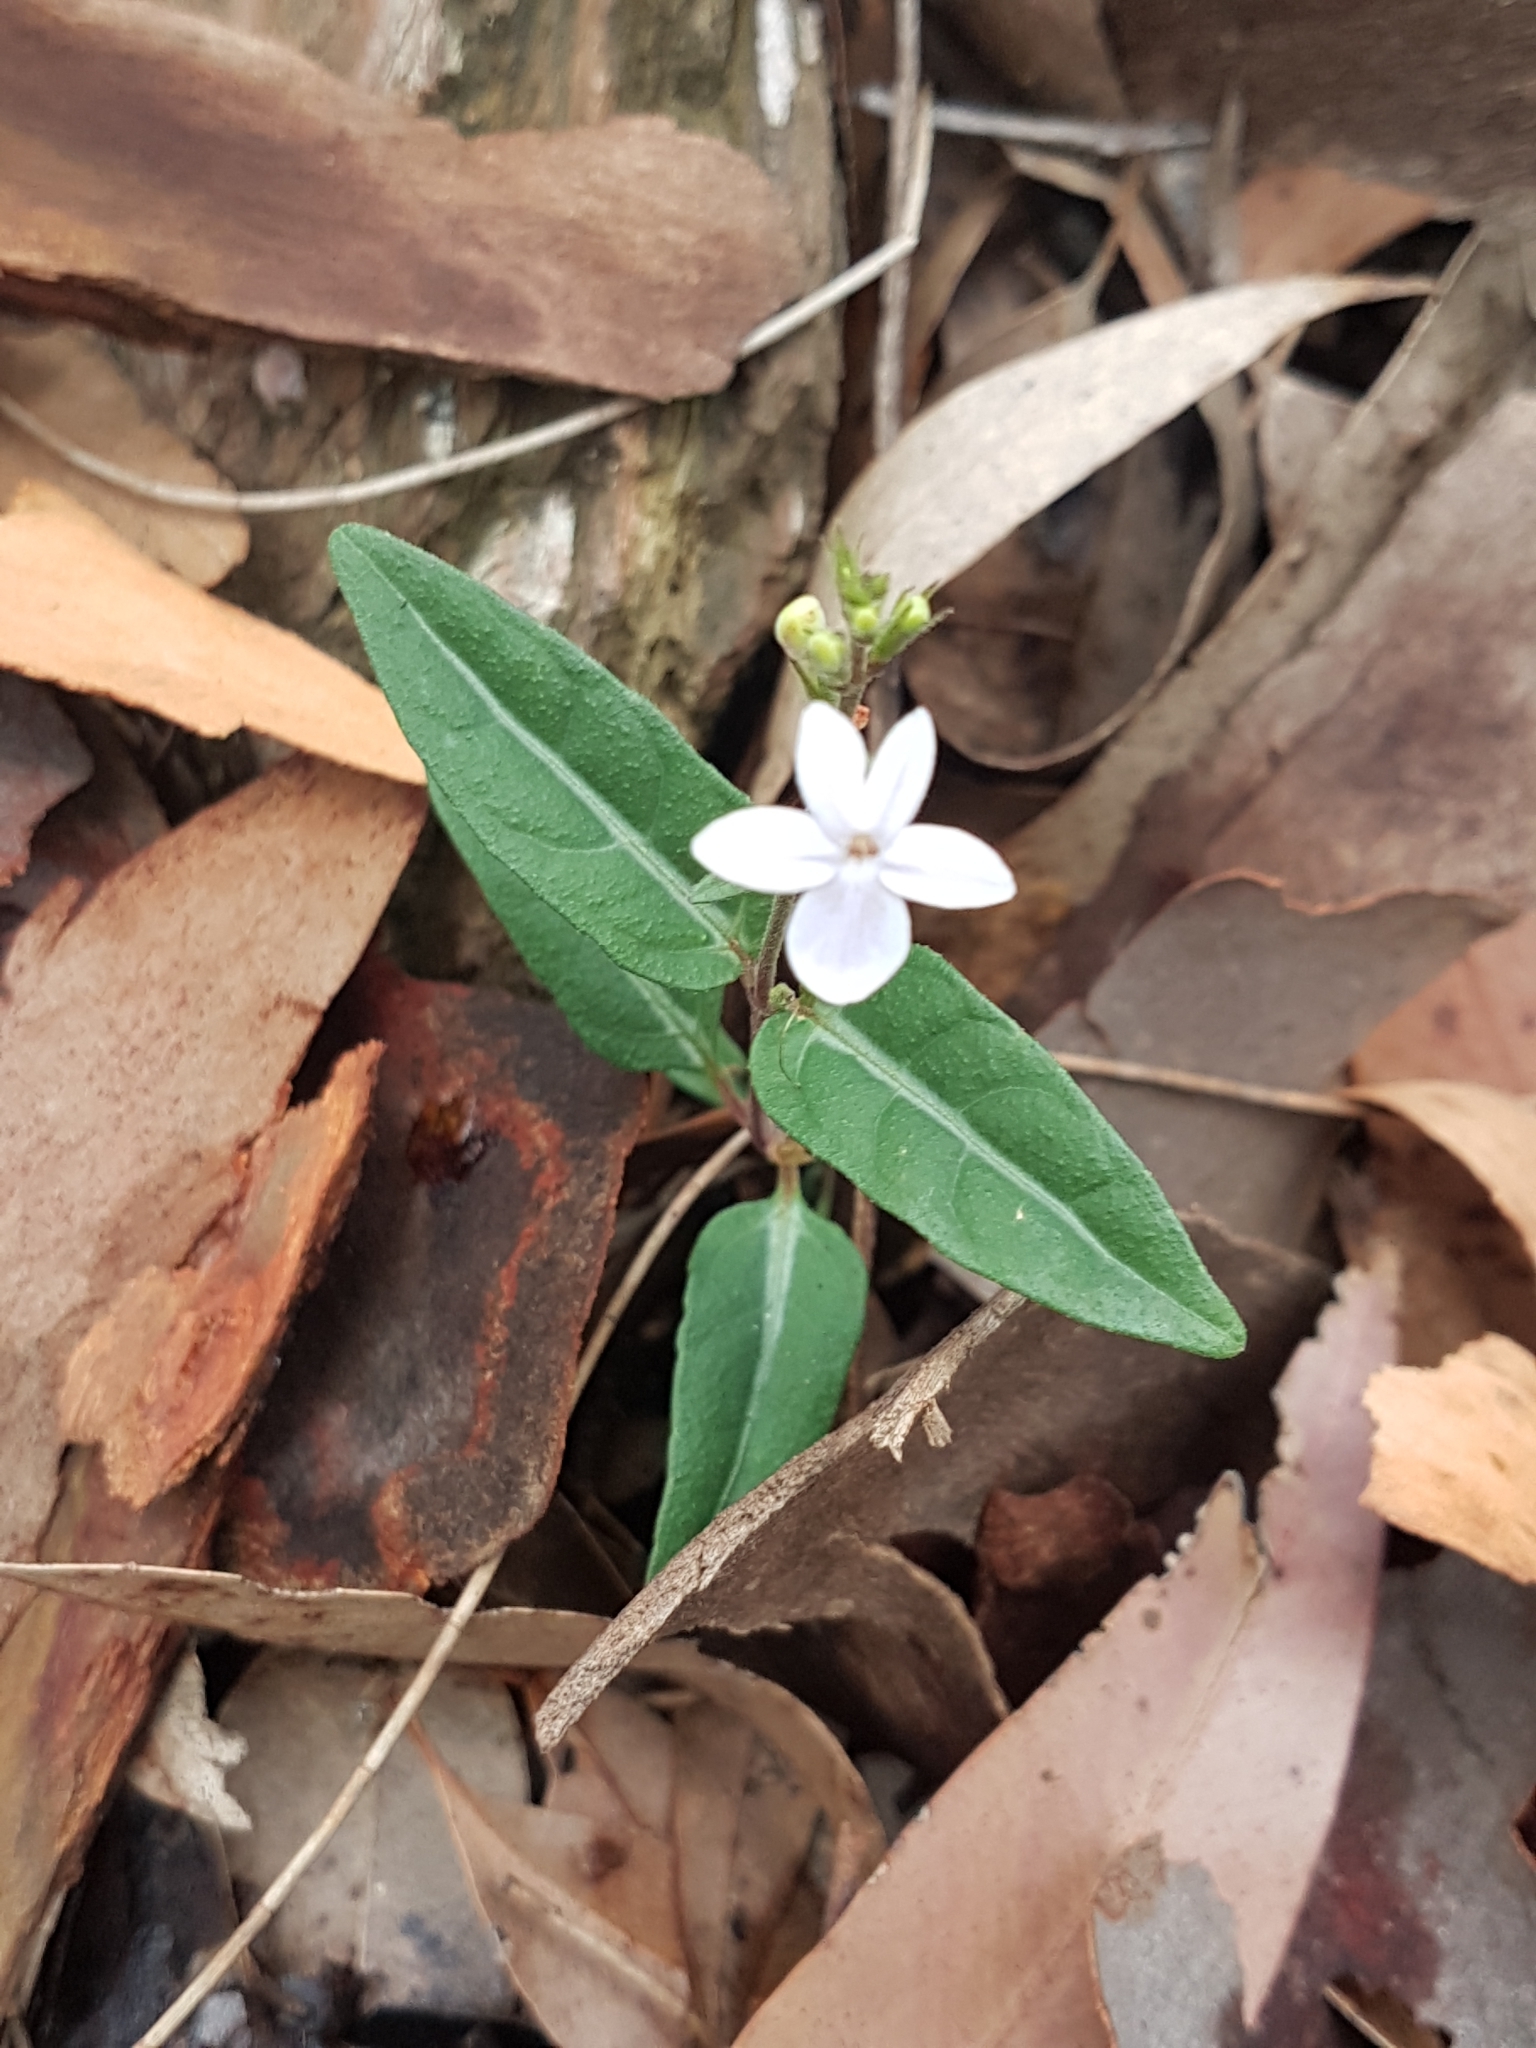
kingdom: Plantae
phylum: Tracheophyta
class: Magnoliopsida
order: Lamiales
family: Acanthaceae
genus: Pseuderanthemum
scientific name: Pseuderanthemum variabile
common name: Night and afternoon
